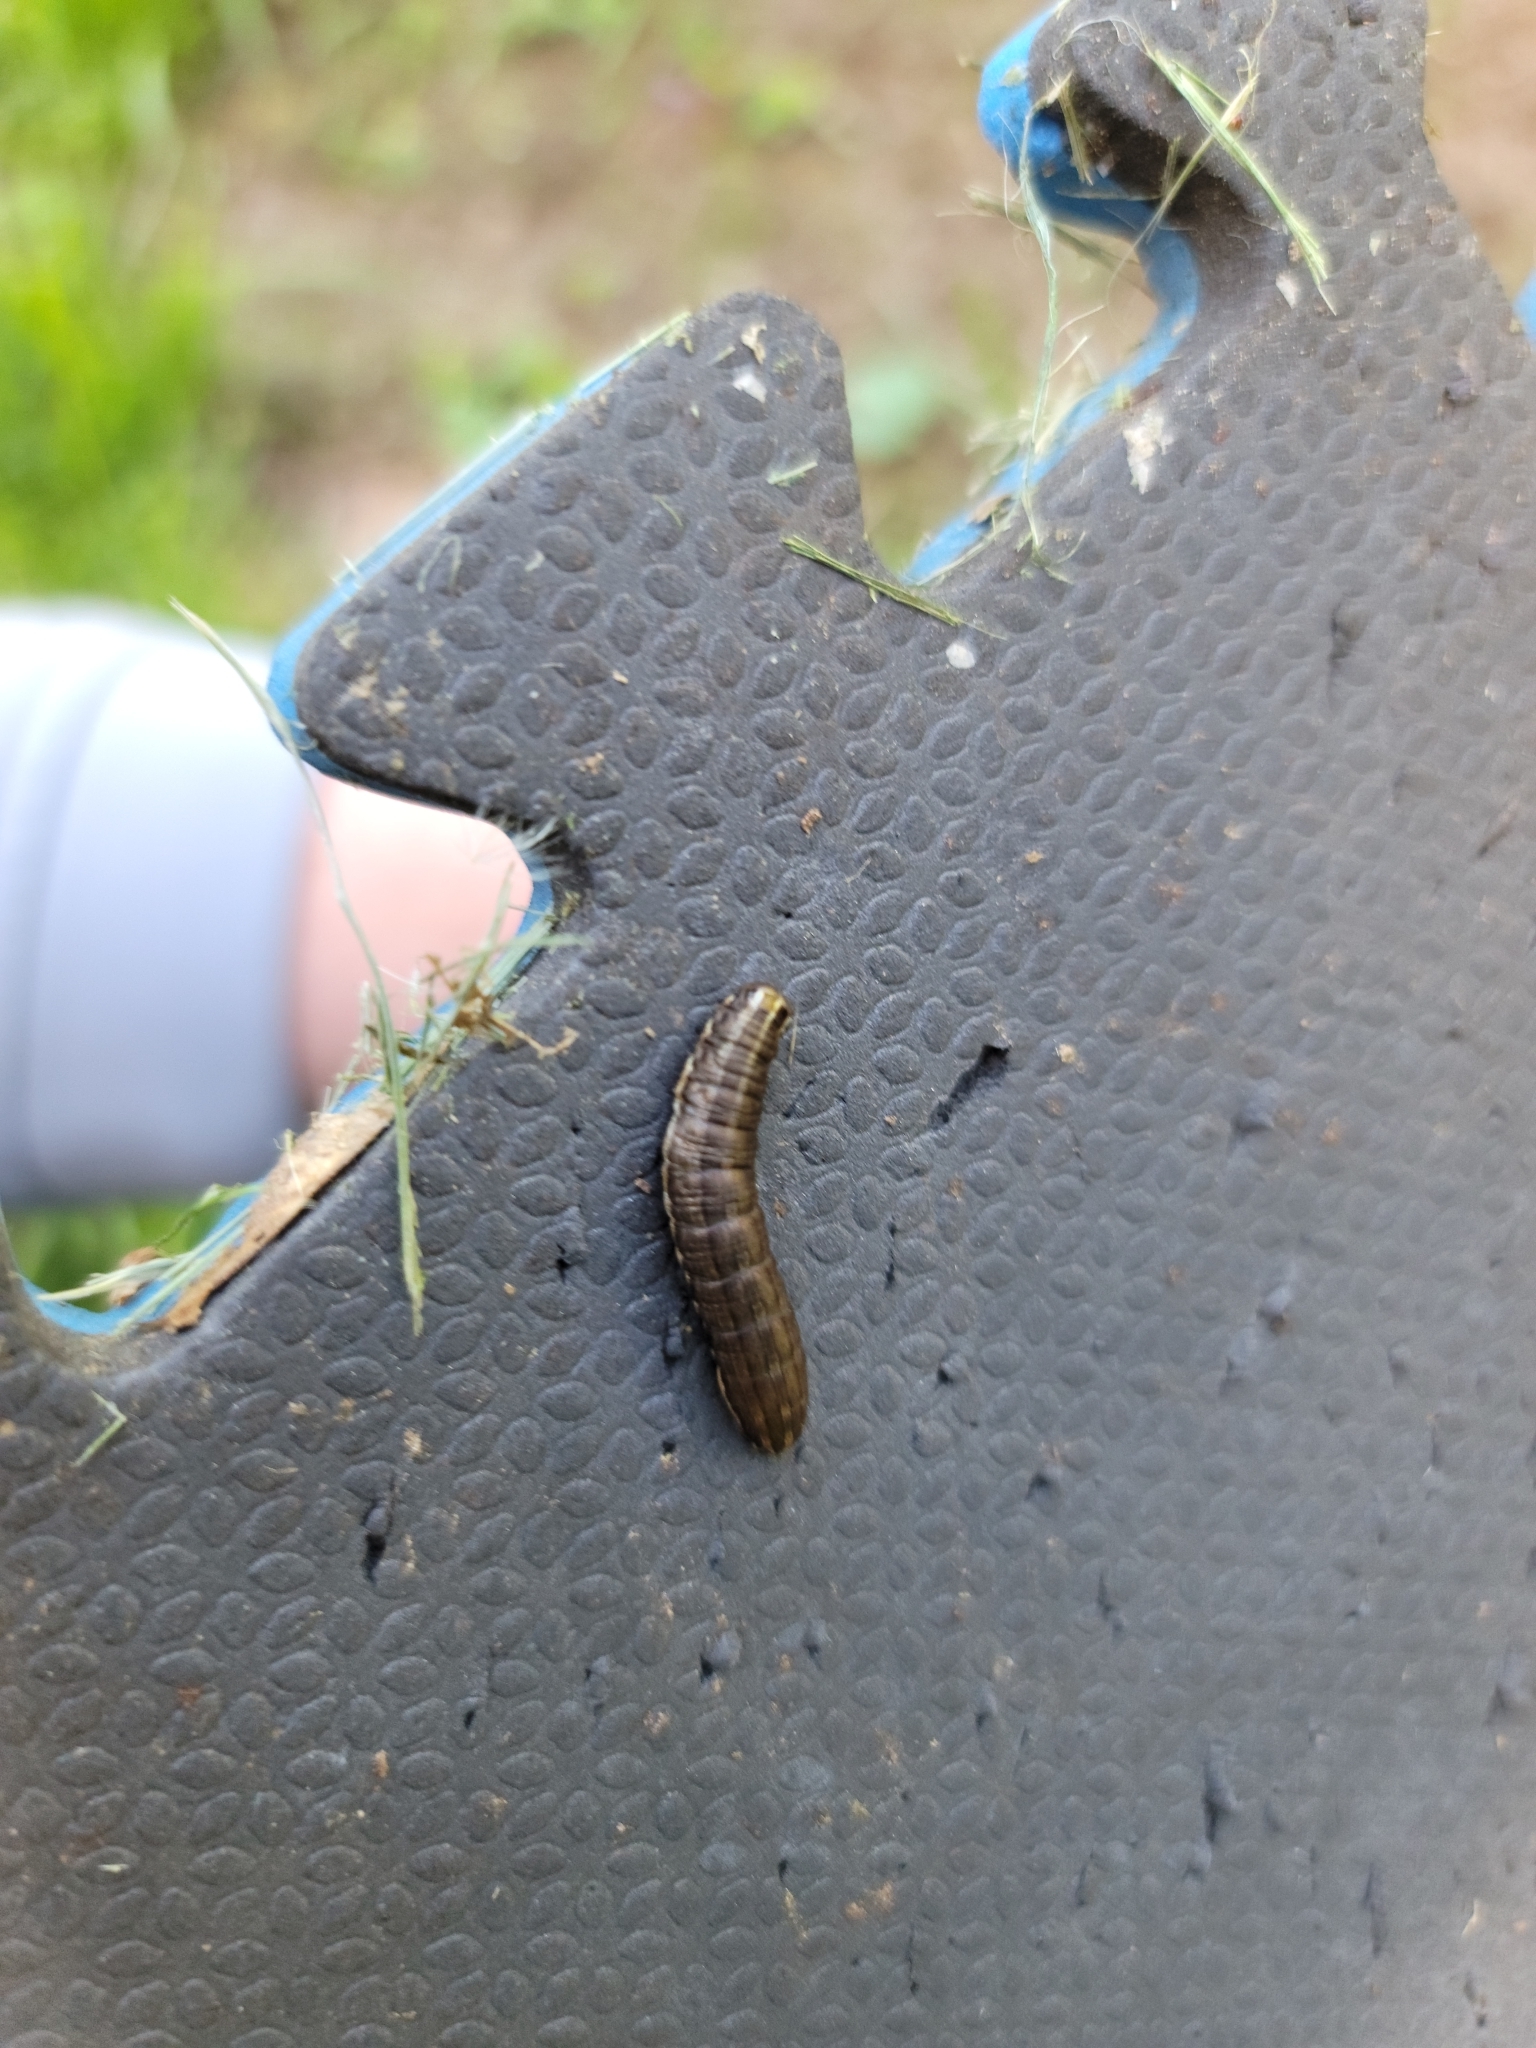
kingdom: Animalia
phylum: Arthropoda
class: Insecta
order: Lepidoptera
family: Noctuidae
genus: Nephelodes
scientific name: Nephelodes minians
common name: Bronzed cutworm
